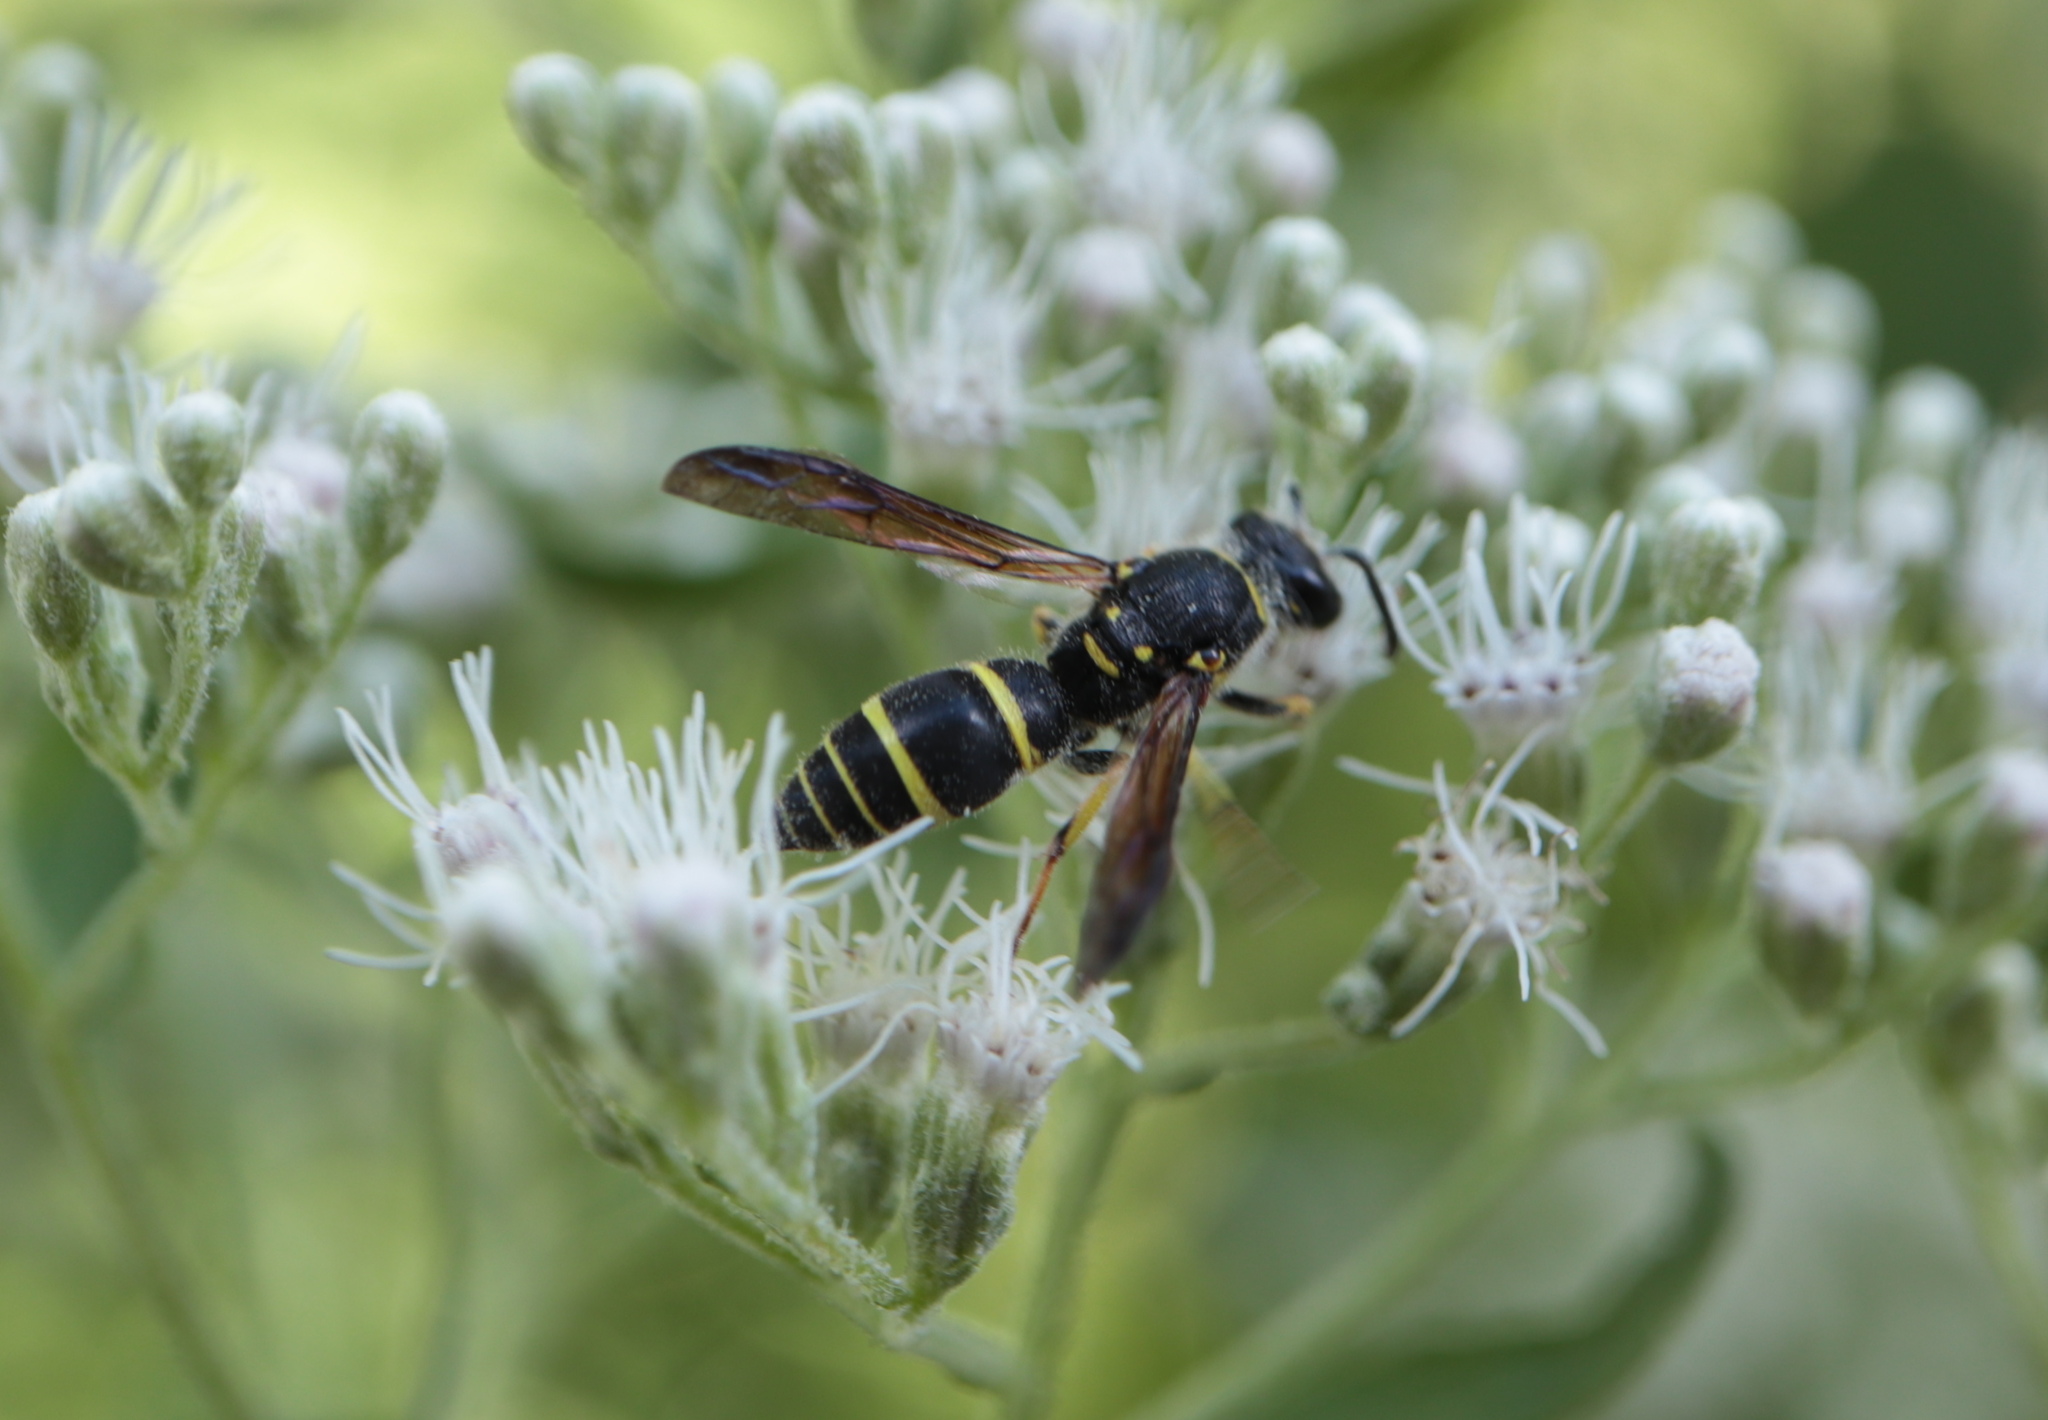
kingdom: Animalia
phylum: Arthropoda
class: Insecta
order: Hymenoptera
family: Vespidae
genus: Ancistrocerus
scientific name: Ancistrocerus adiabatus
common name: Bramble mason wasp
